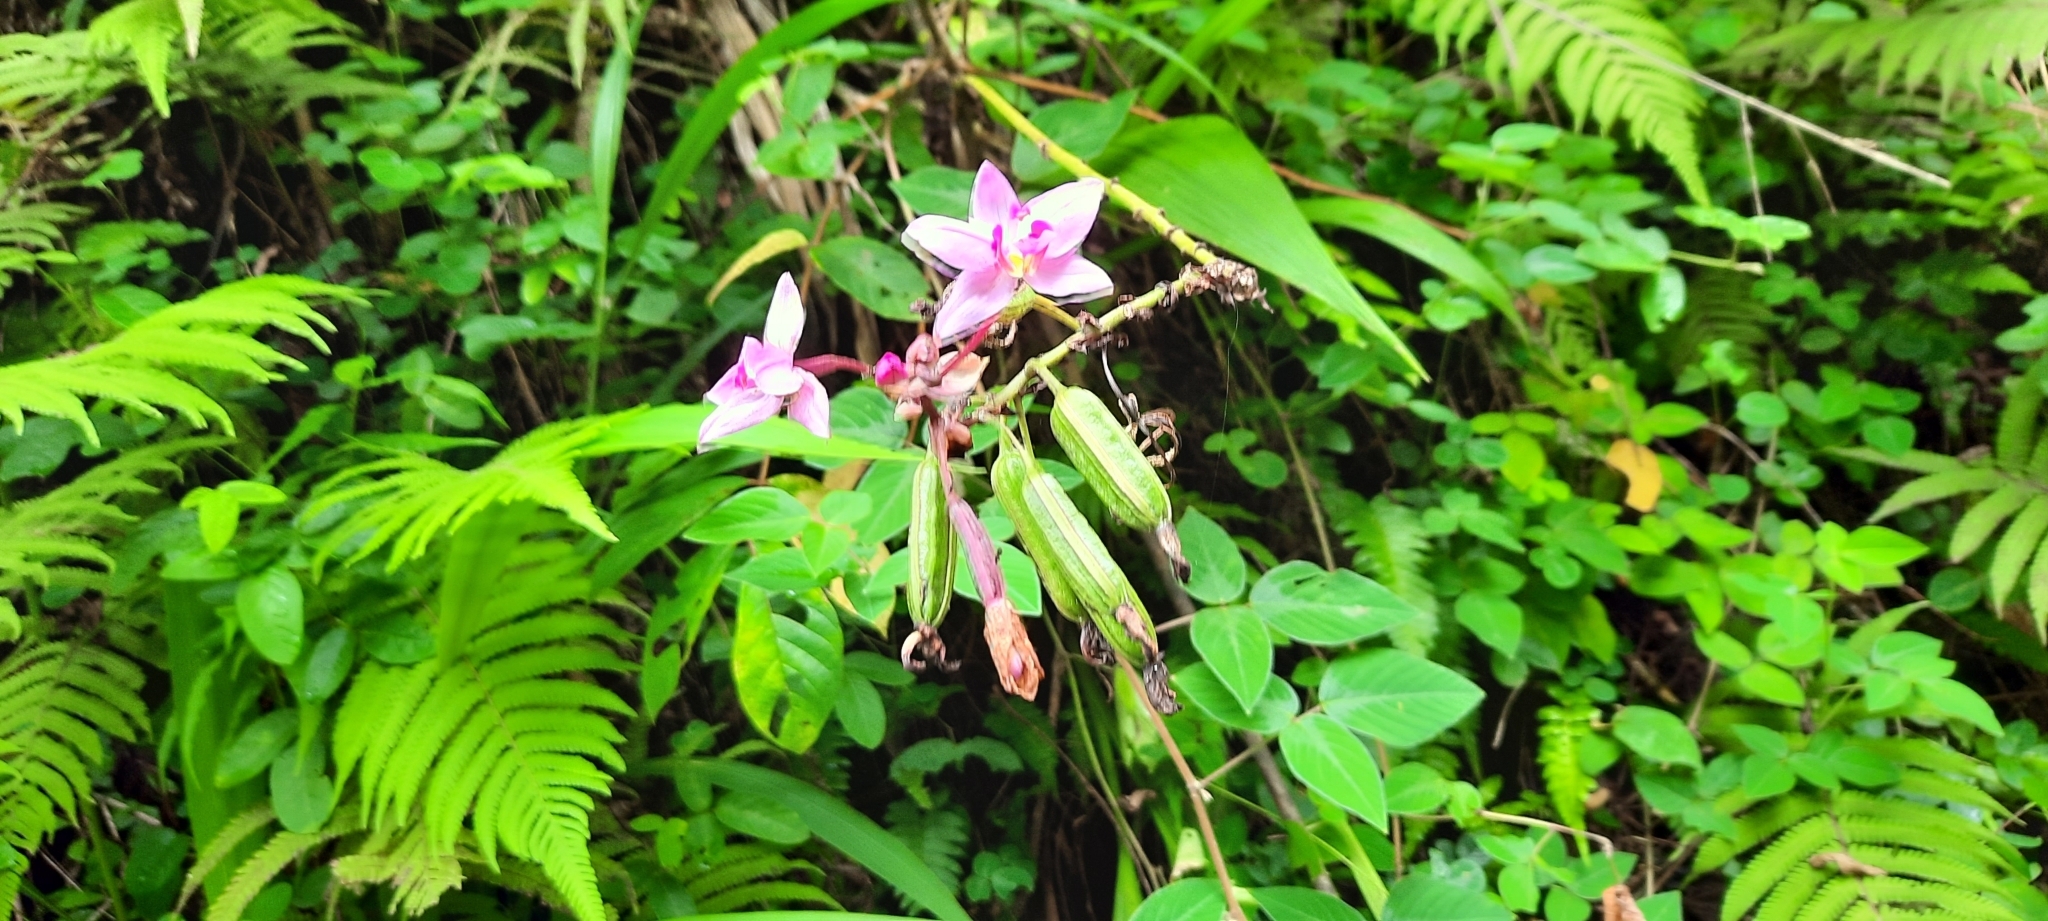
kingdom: Plantae
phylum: Tracheophyta
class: Liliopsida
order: Asparagales
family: Orchidaceae
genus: Spathoglottis
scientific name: Spathoglottis plicata
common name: Philippine ground orchid
